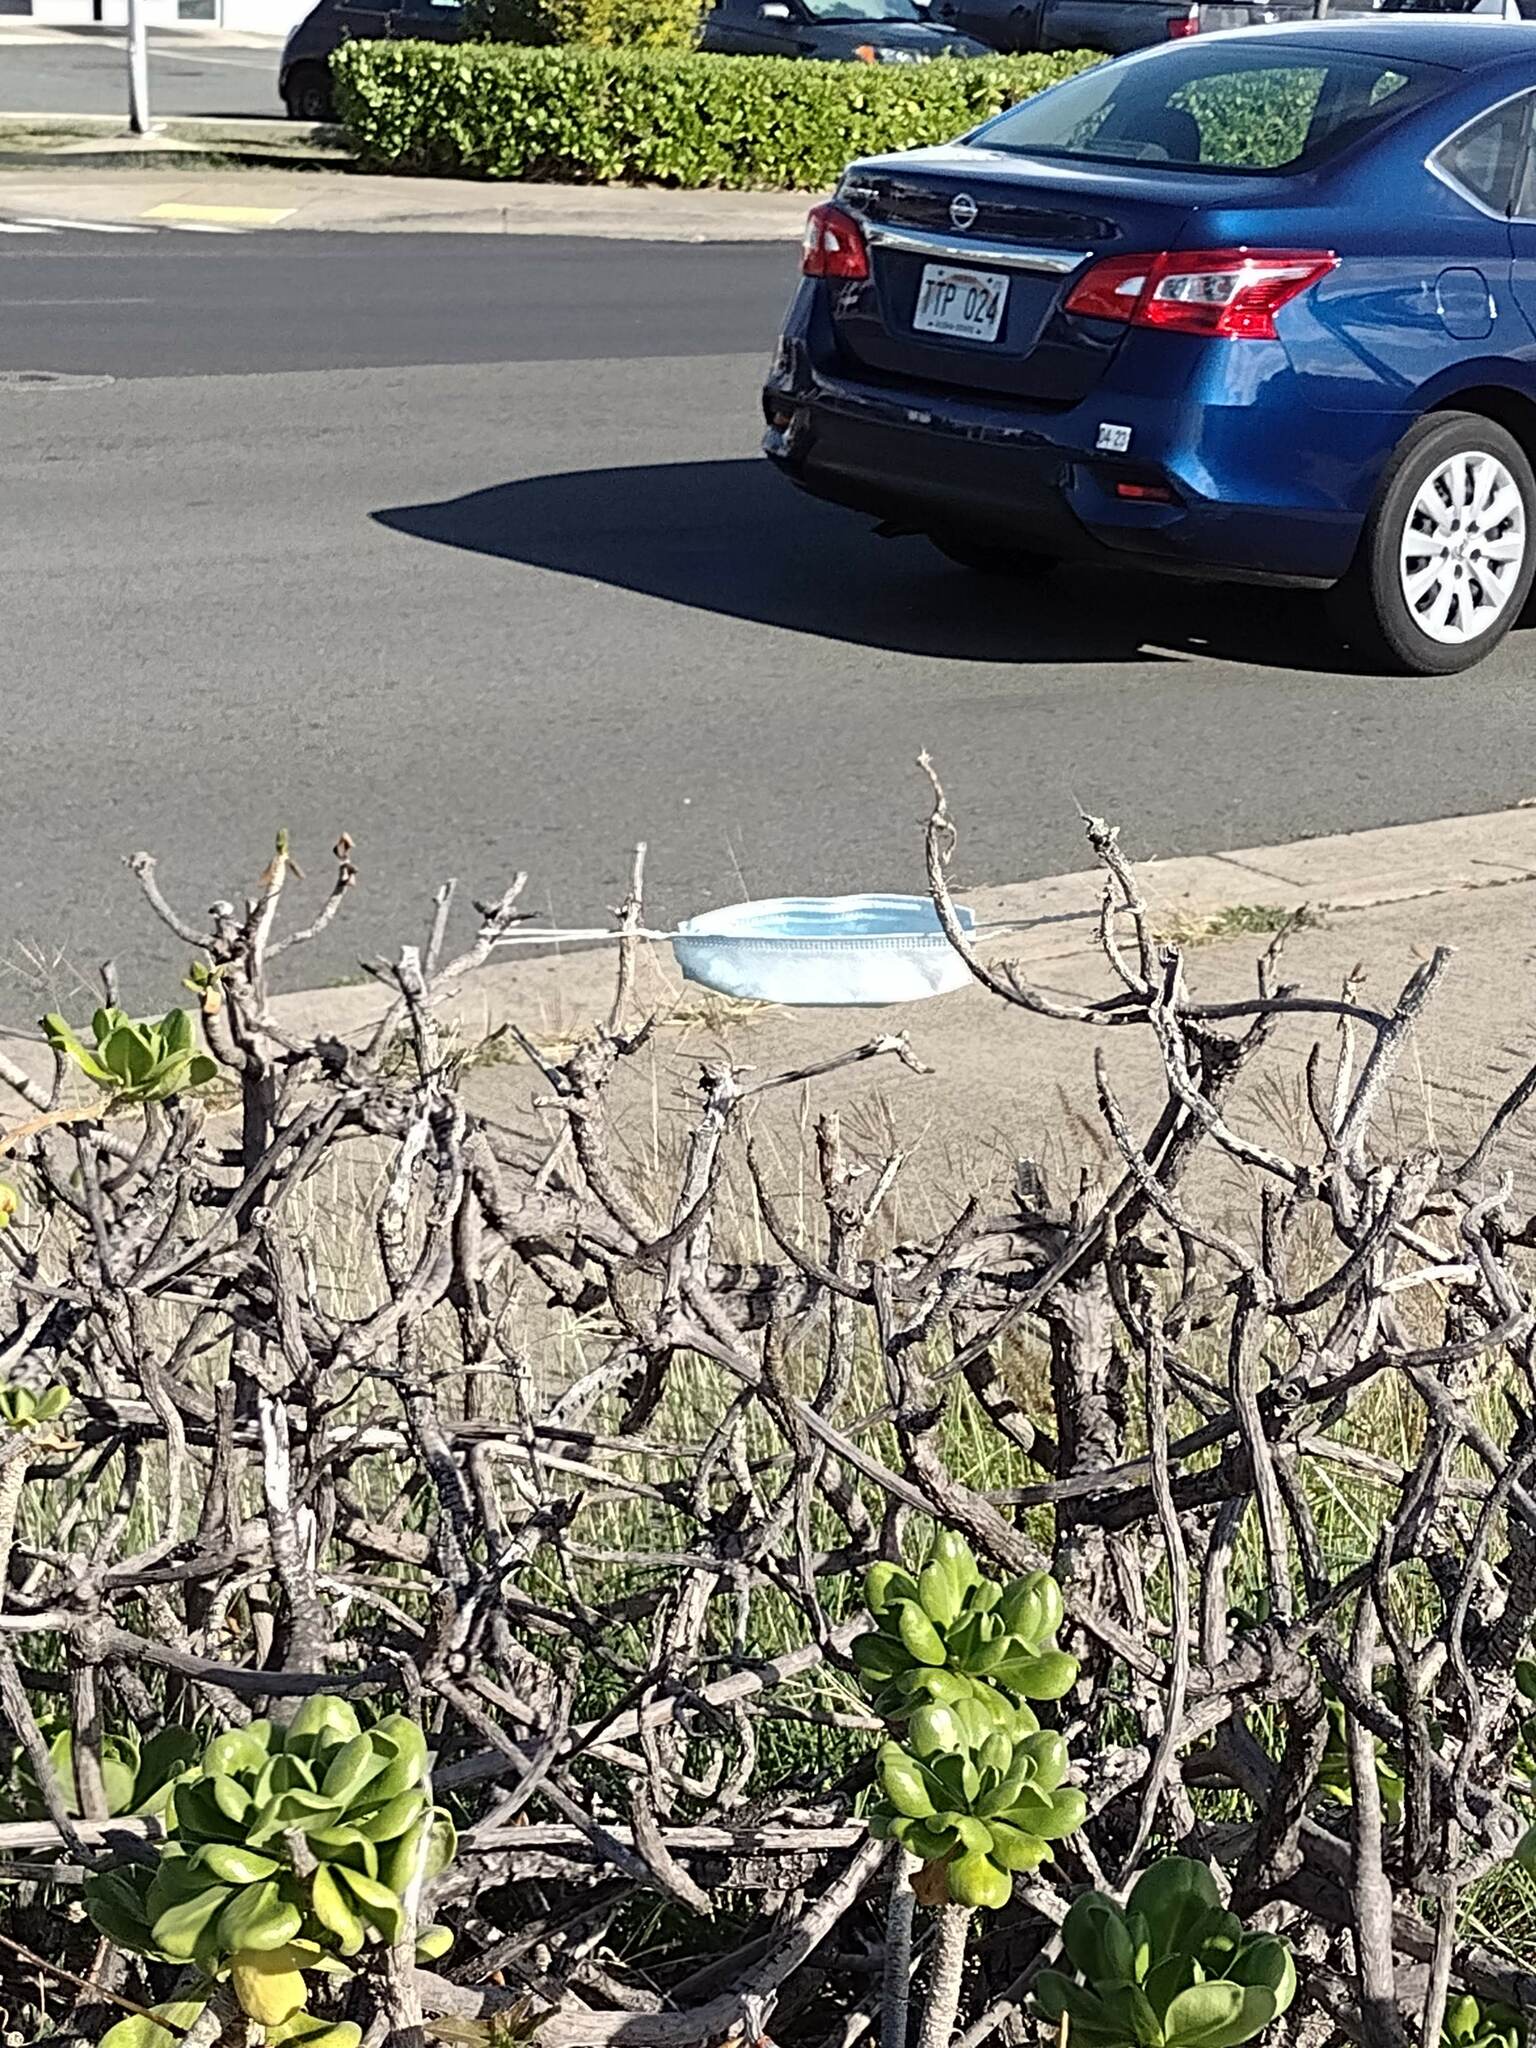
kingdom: Plantae
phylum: Tracheophyta
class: Magnoliopsida
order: Asterales
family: Goodeniaceae
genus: Scaevola
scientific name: Scaevola taccada
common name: Sea lettucetree
